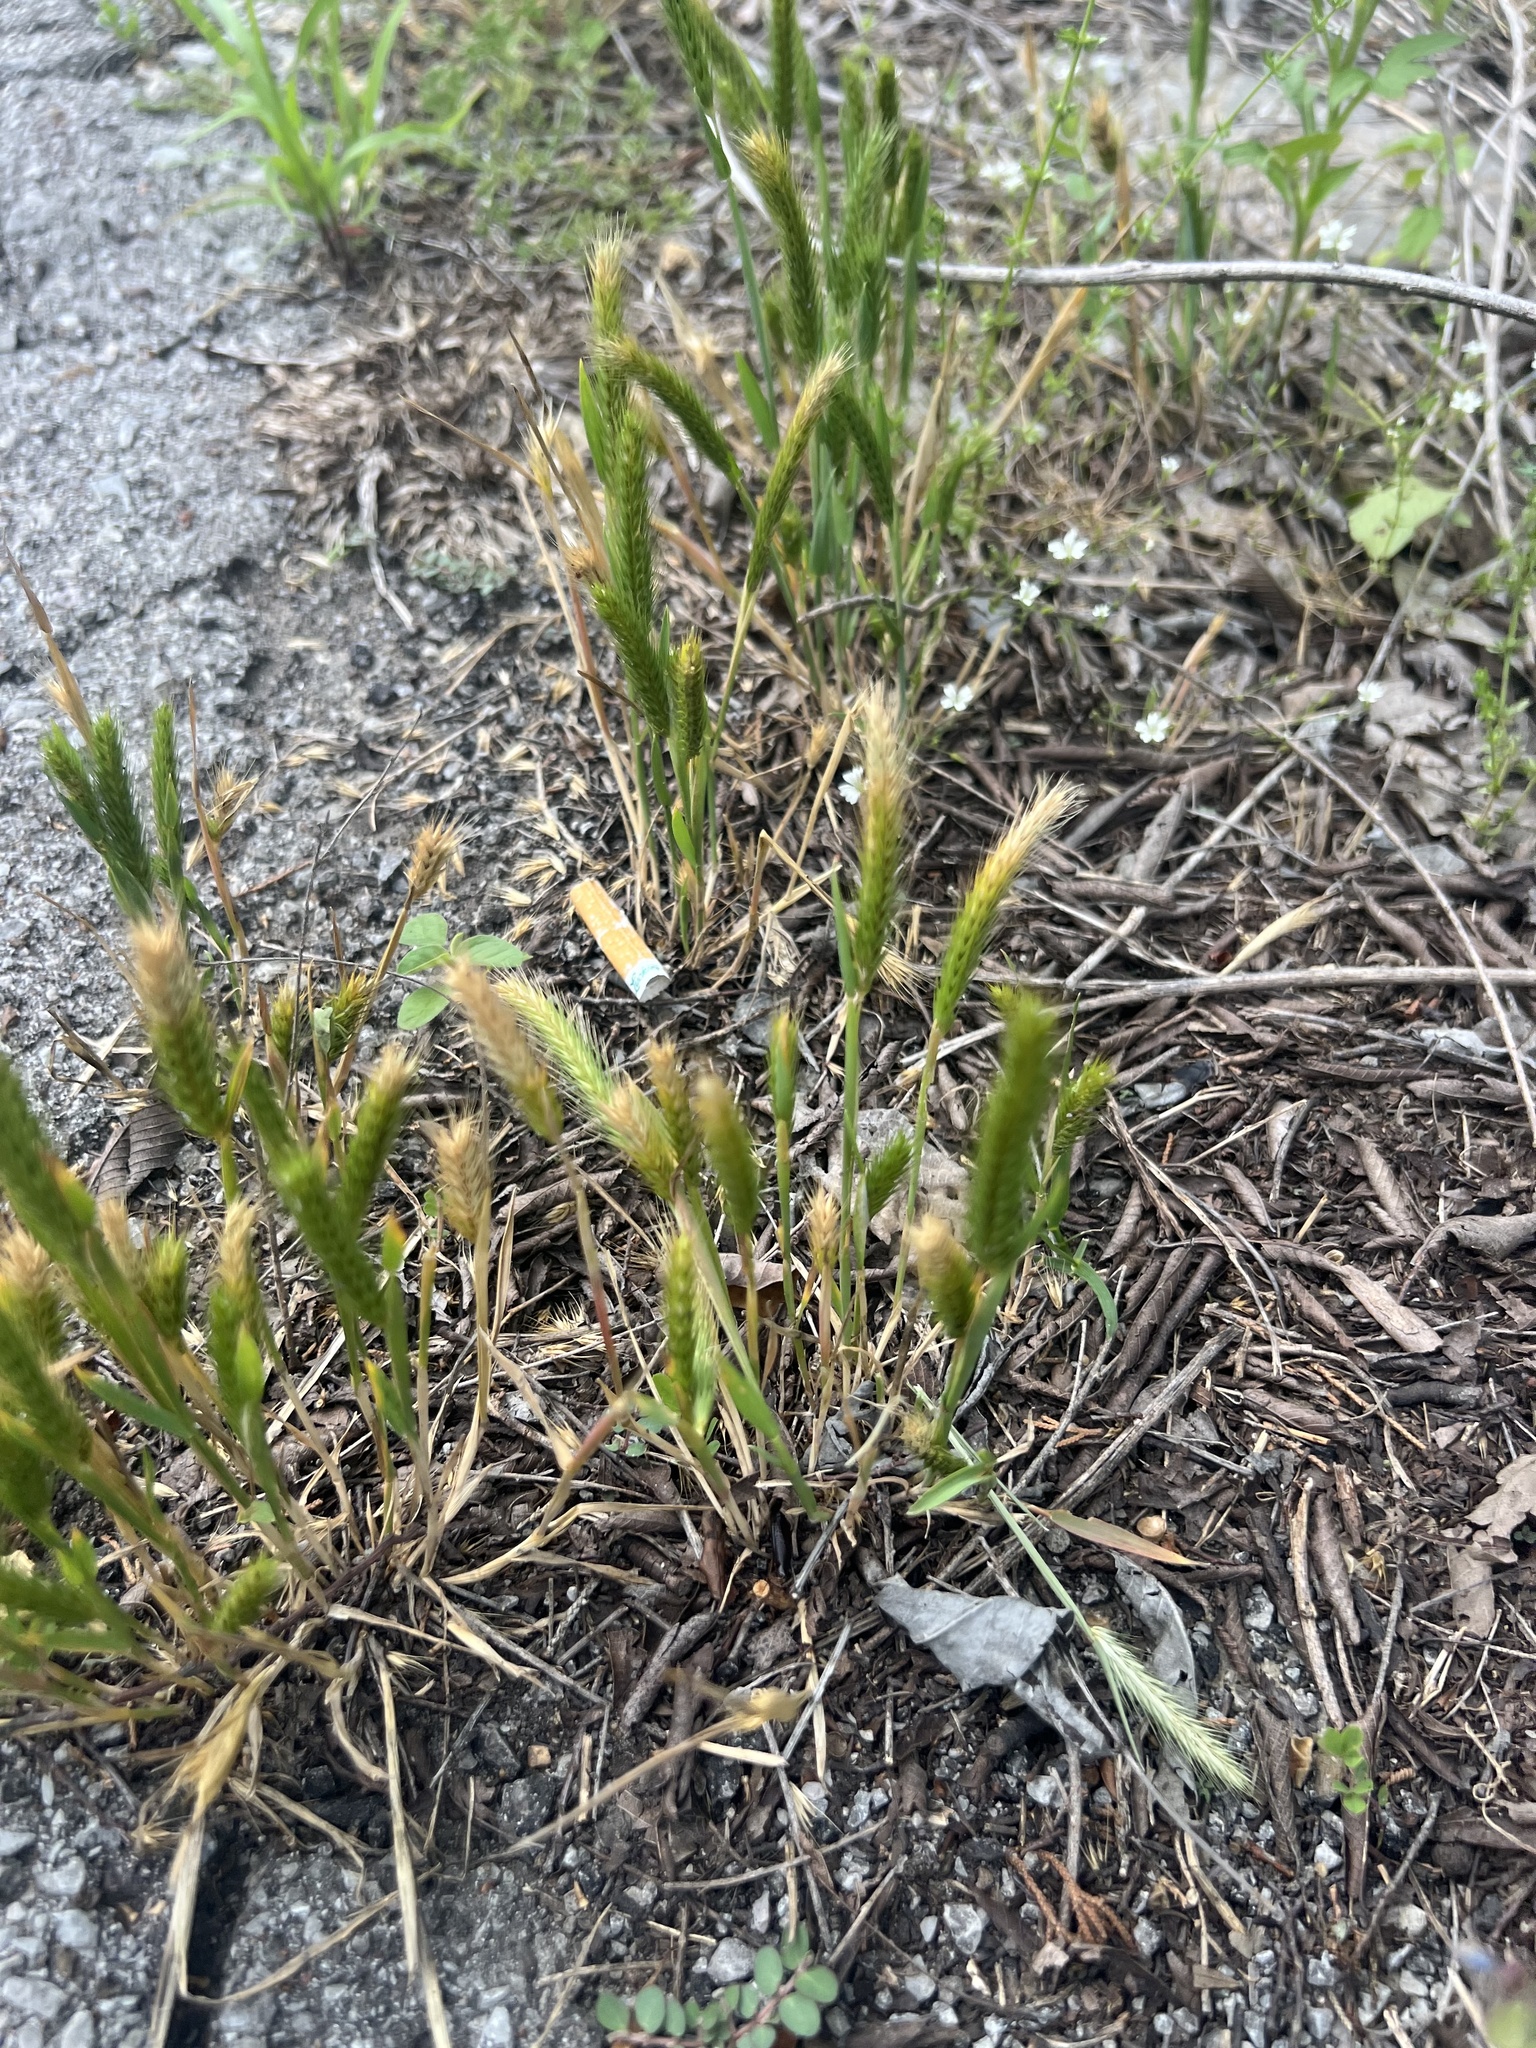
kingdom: Plantae
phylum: Tracheophyta
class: Liliopsida
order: Poales
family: Poaceae
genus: Hordeum
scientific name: Hordeum pusillum
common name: Little barley
